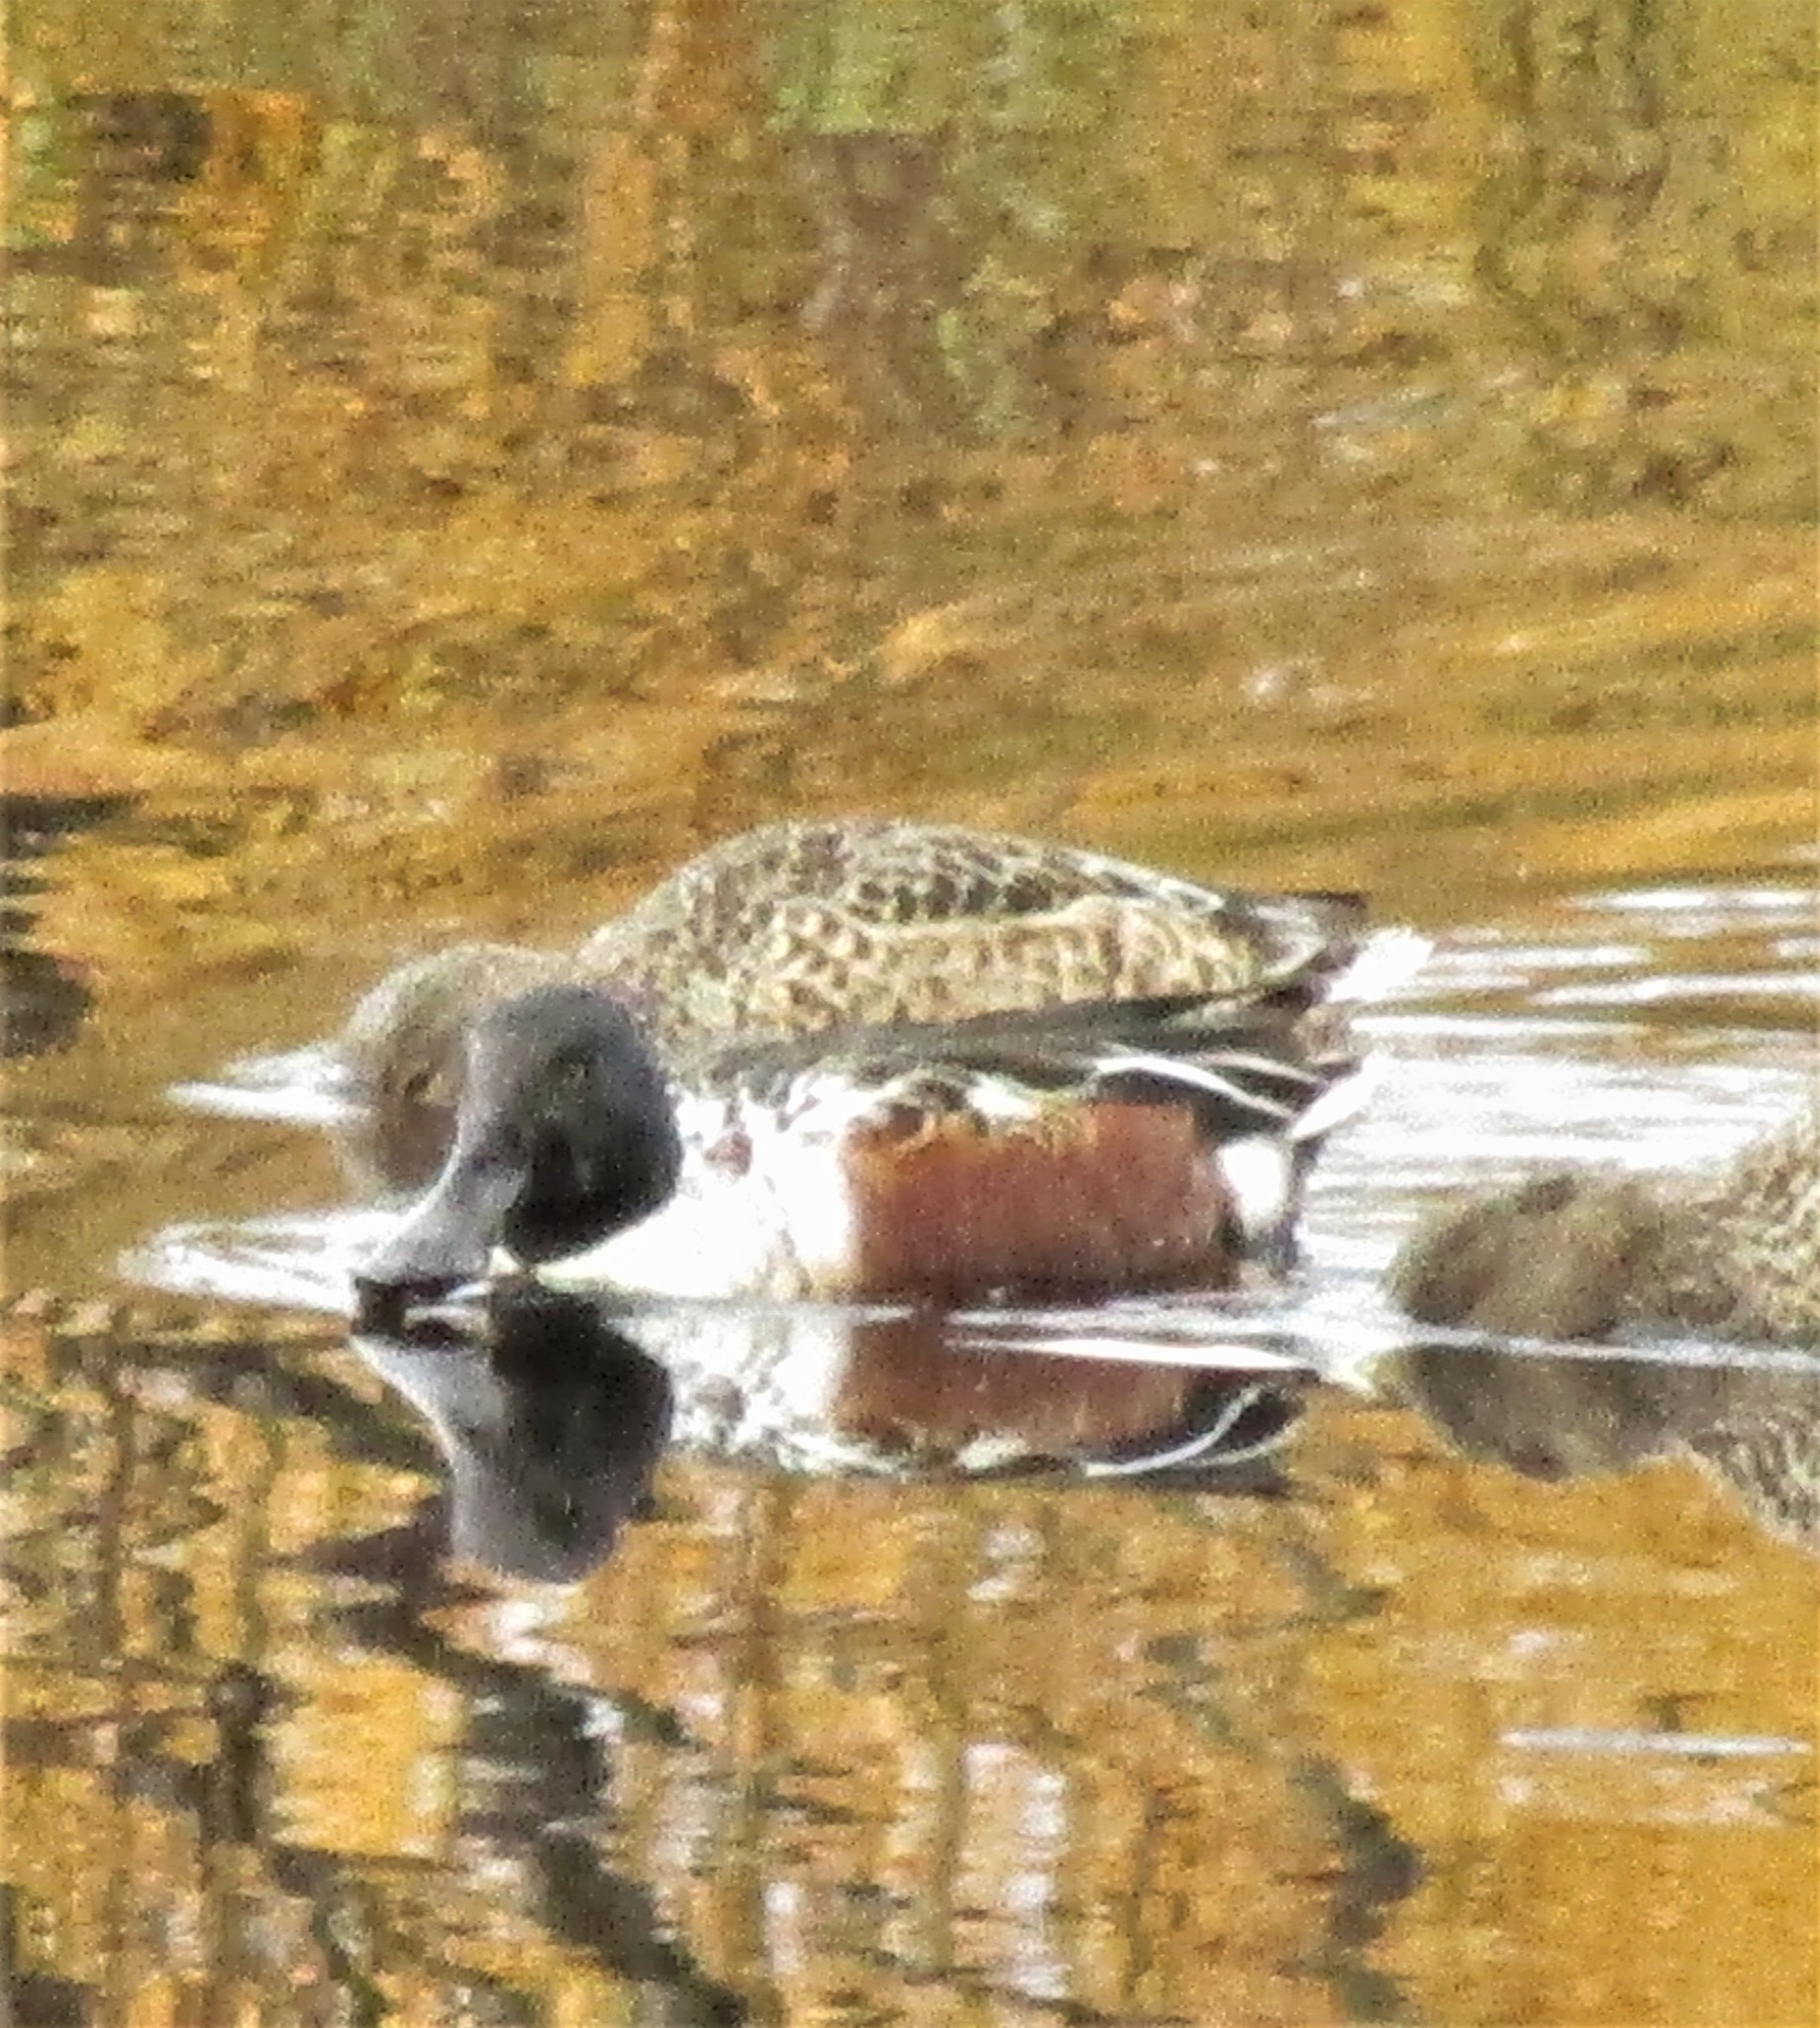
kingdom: Animalia
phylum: Chordata
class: Aves
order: Anseriformes
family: Anatidae
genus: Spatula
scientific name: Spatula clypeata
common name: Northern shoveler
